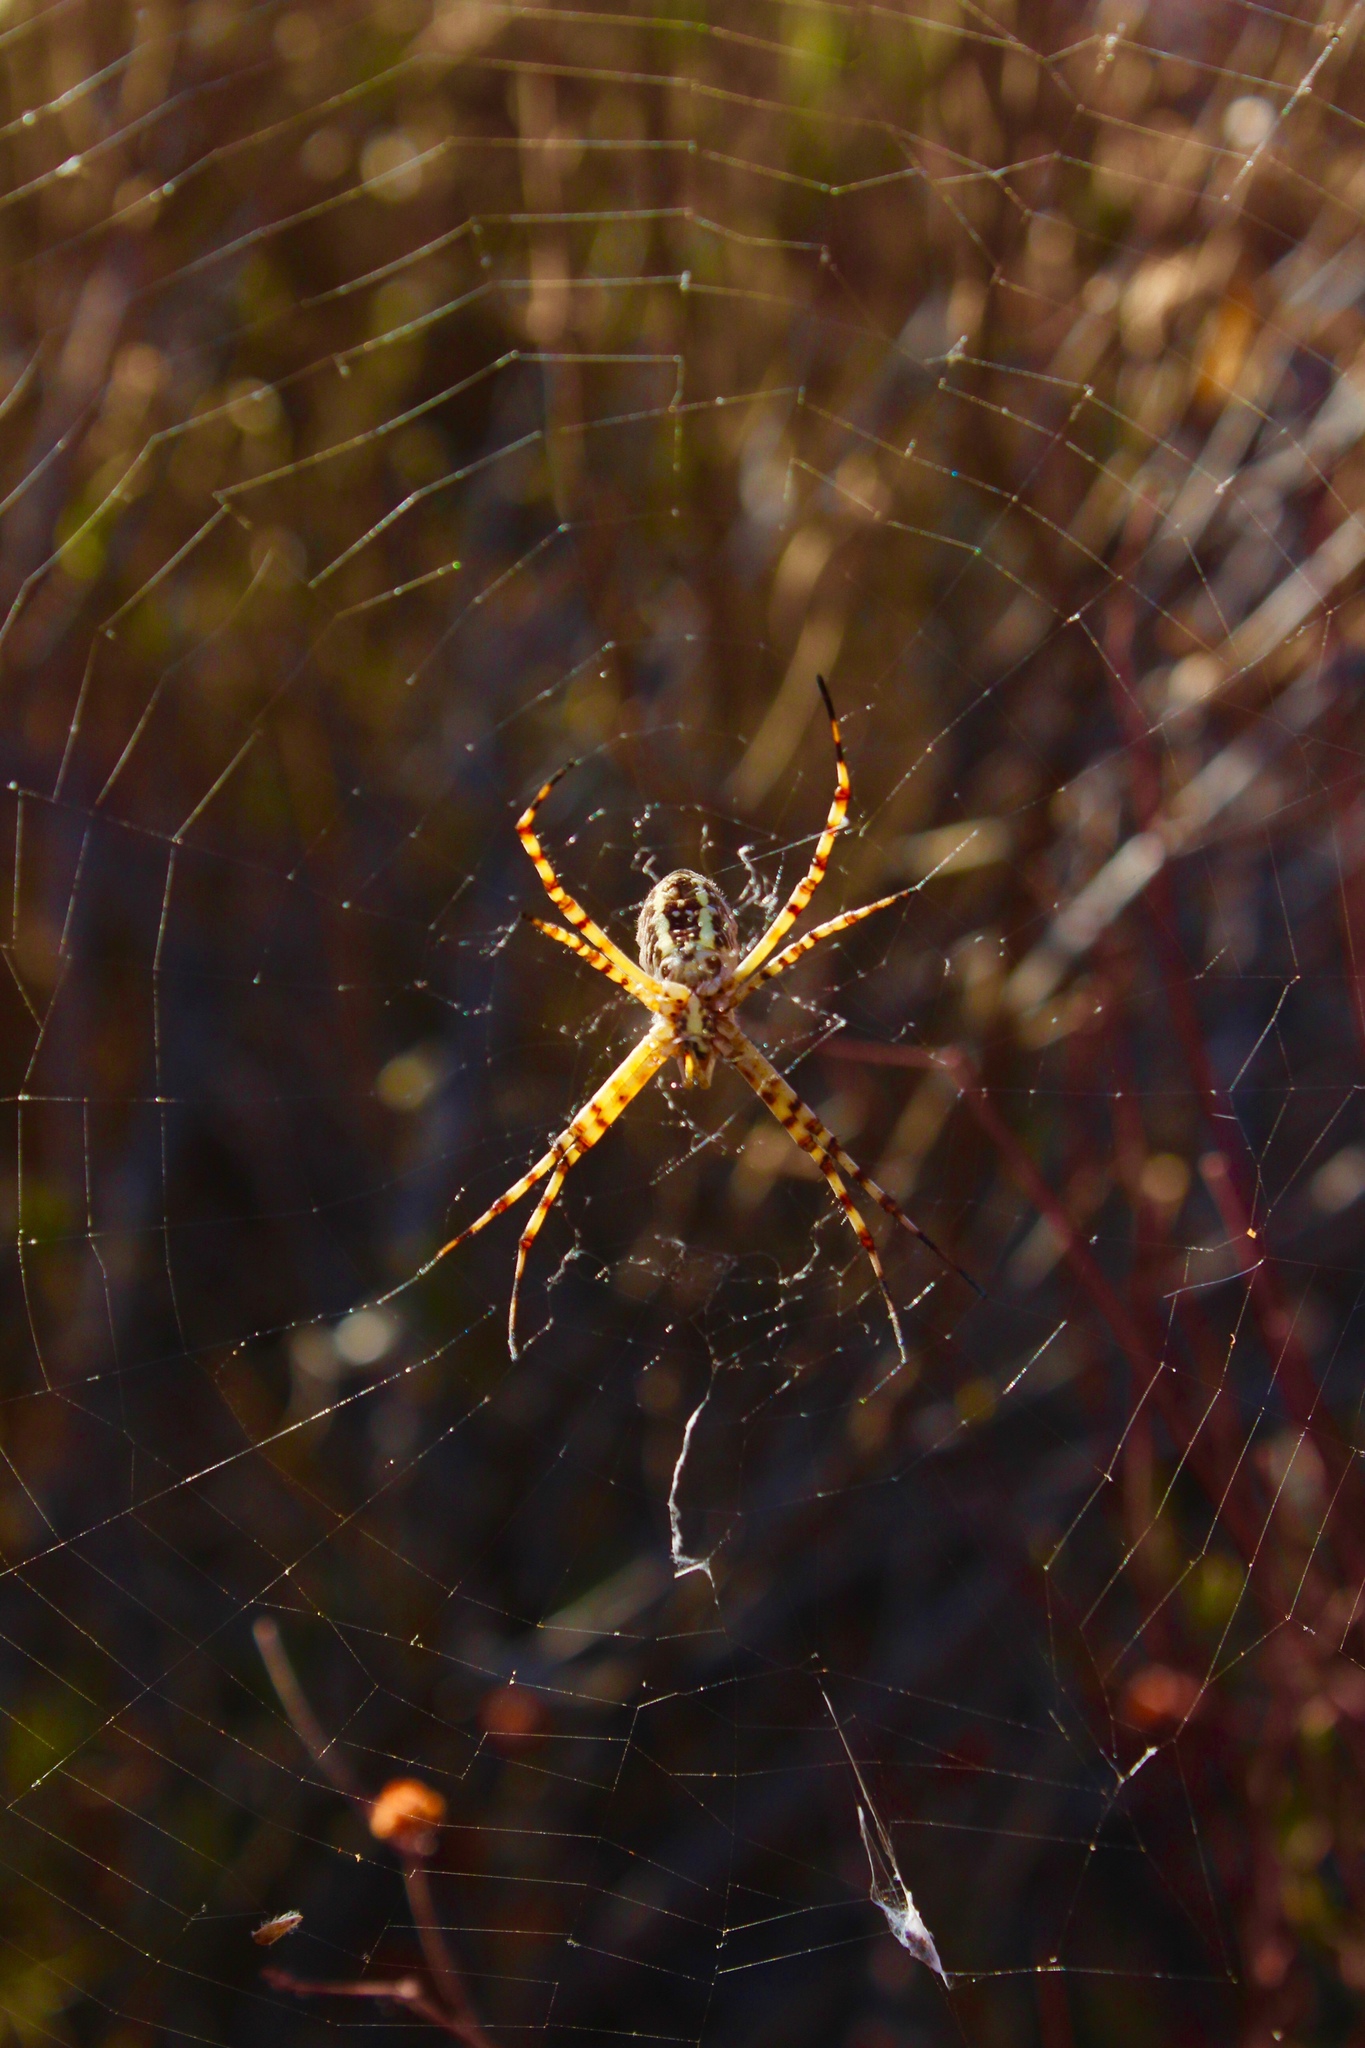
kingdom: Animalia
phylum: Arthropoda
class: Arachnida
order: Araneae
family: Araneidae
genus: Argiope
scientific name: Argiope trifasciata
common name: Banded garden spider
